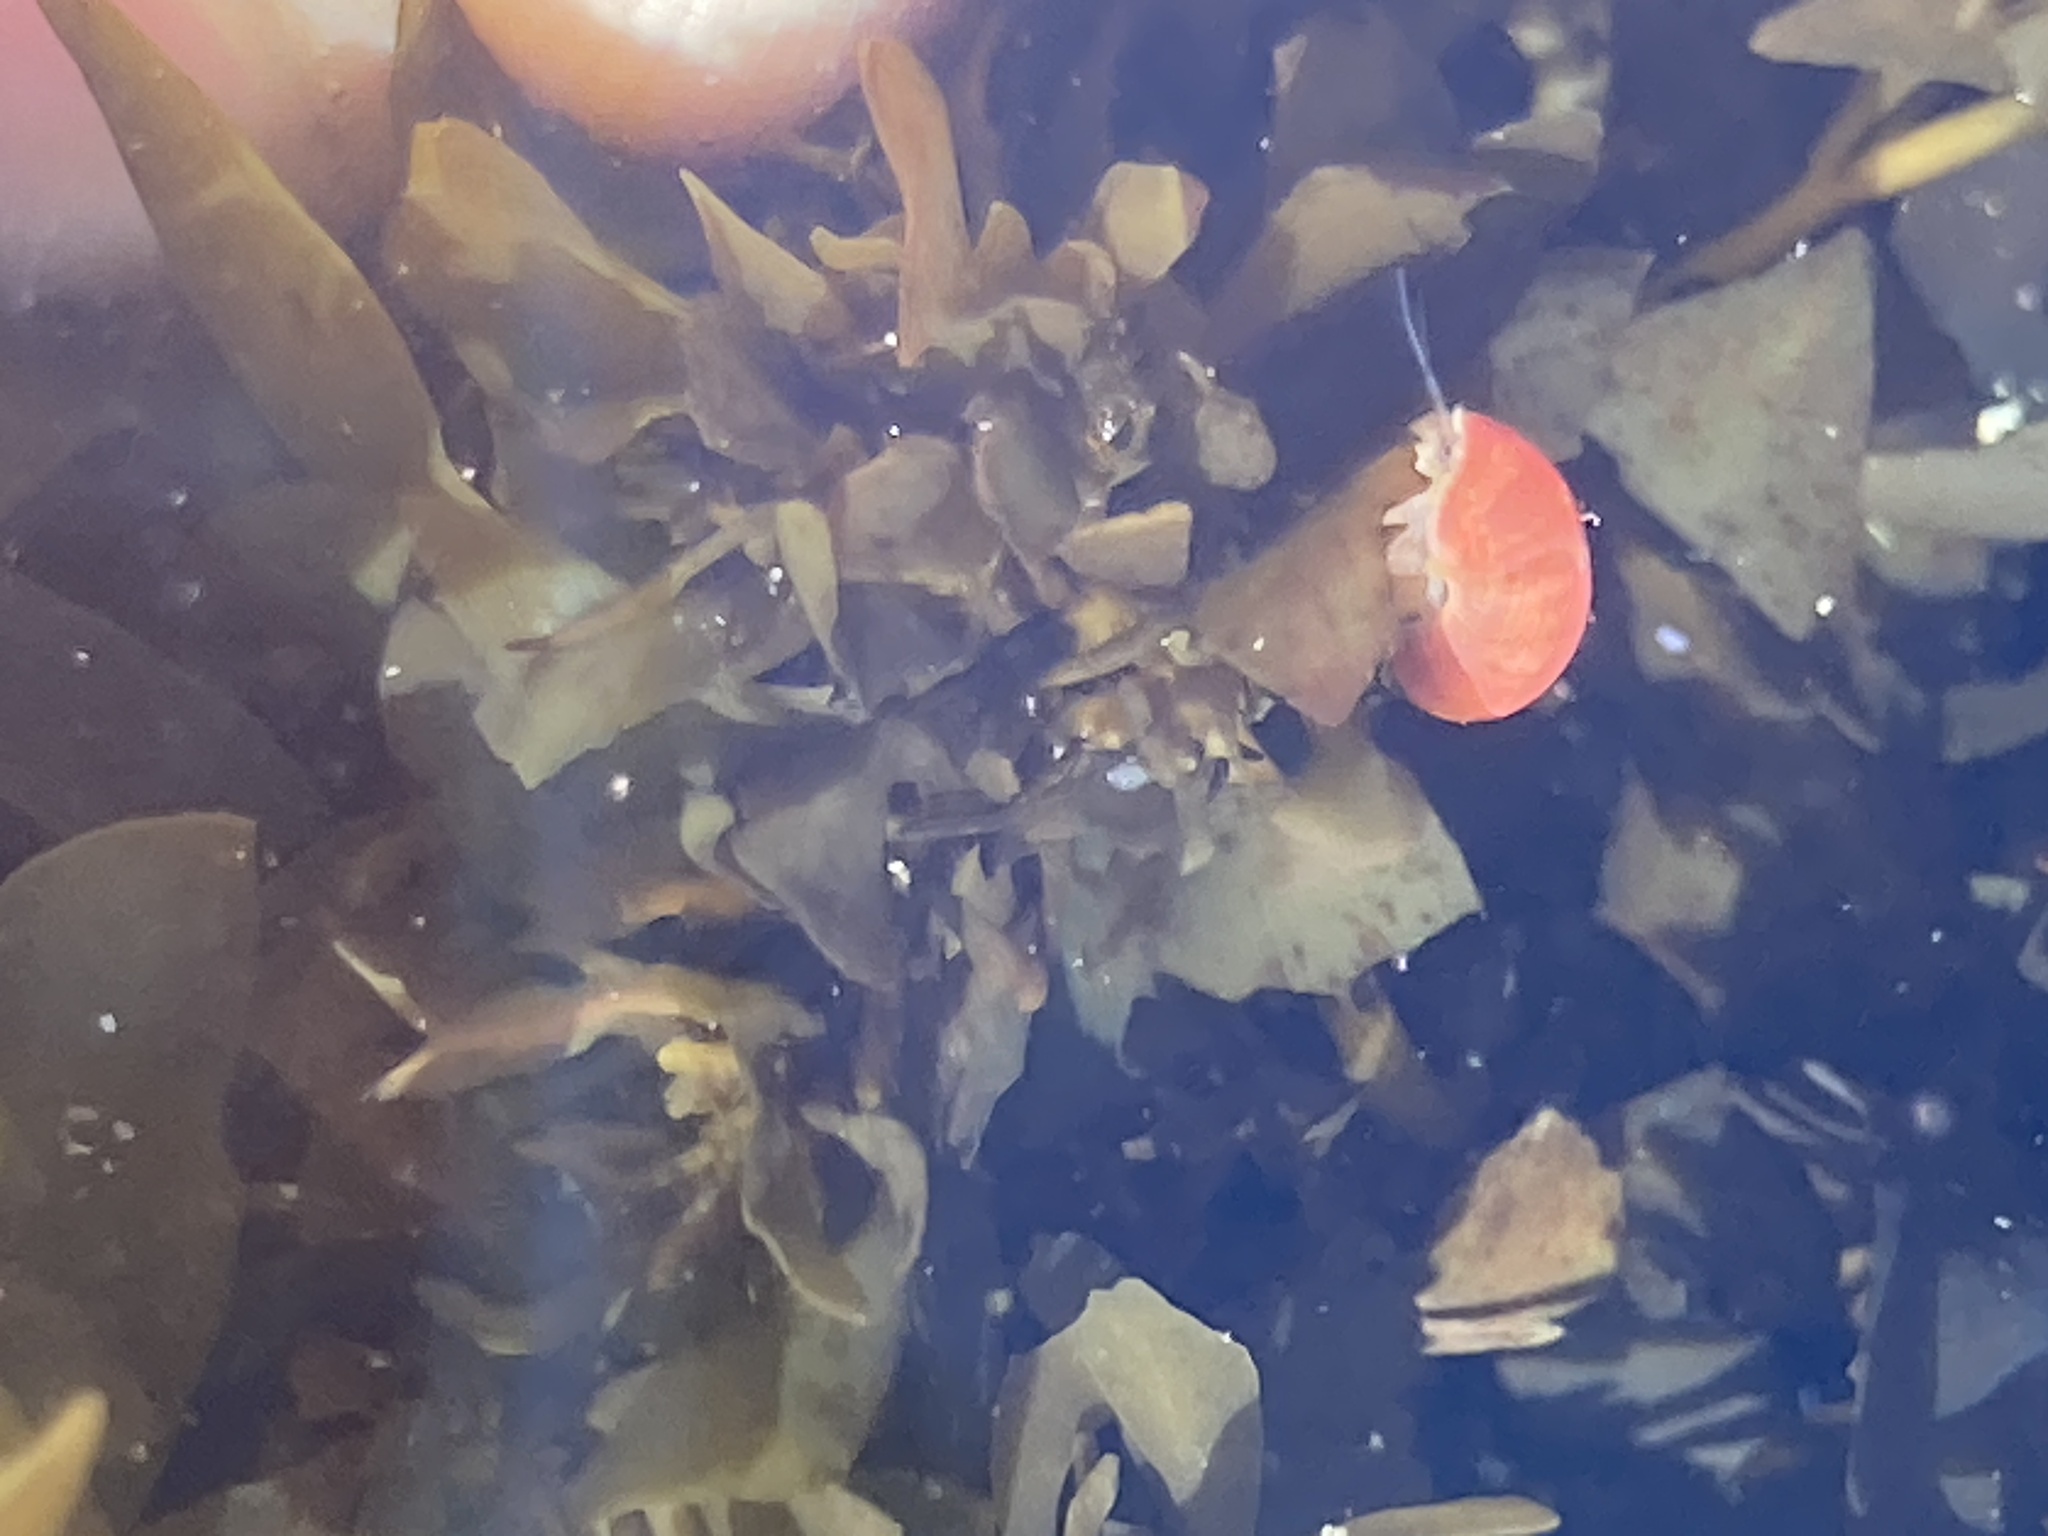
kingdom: Animalia
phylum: Mollusca
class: Gastropoda
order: Trochida
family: Trochidae
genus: Cantharidella
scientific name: Cantharidella picturata
